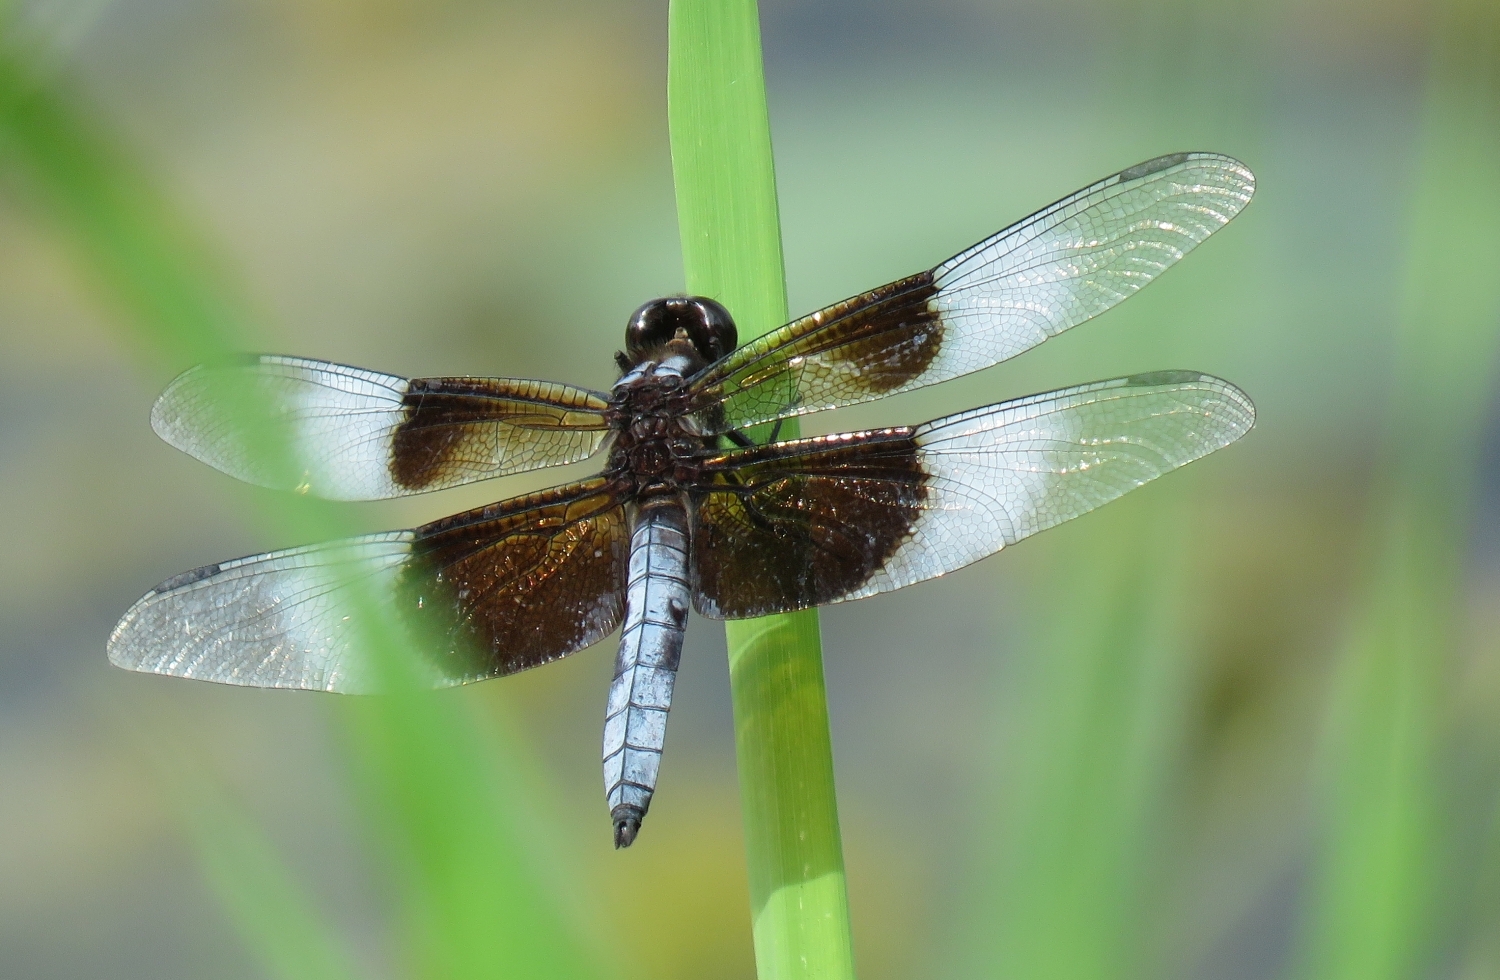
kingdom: Animalia
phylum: Arthropoda
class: Insecta
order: Odonata
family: Libellulidae
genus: Libellula
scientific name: Libellula luctuosa
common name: Widow skimmer
